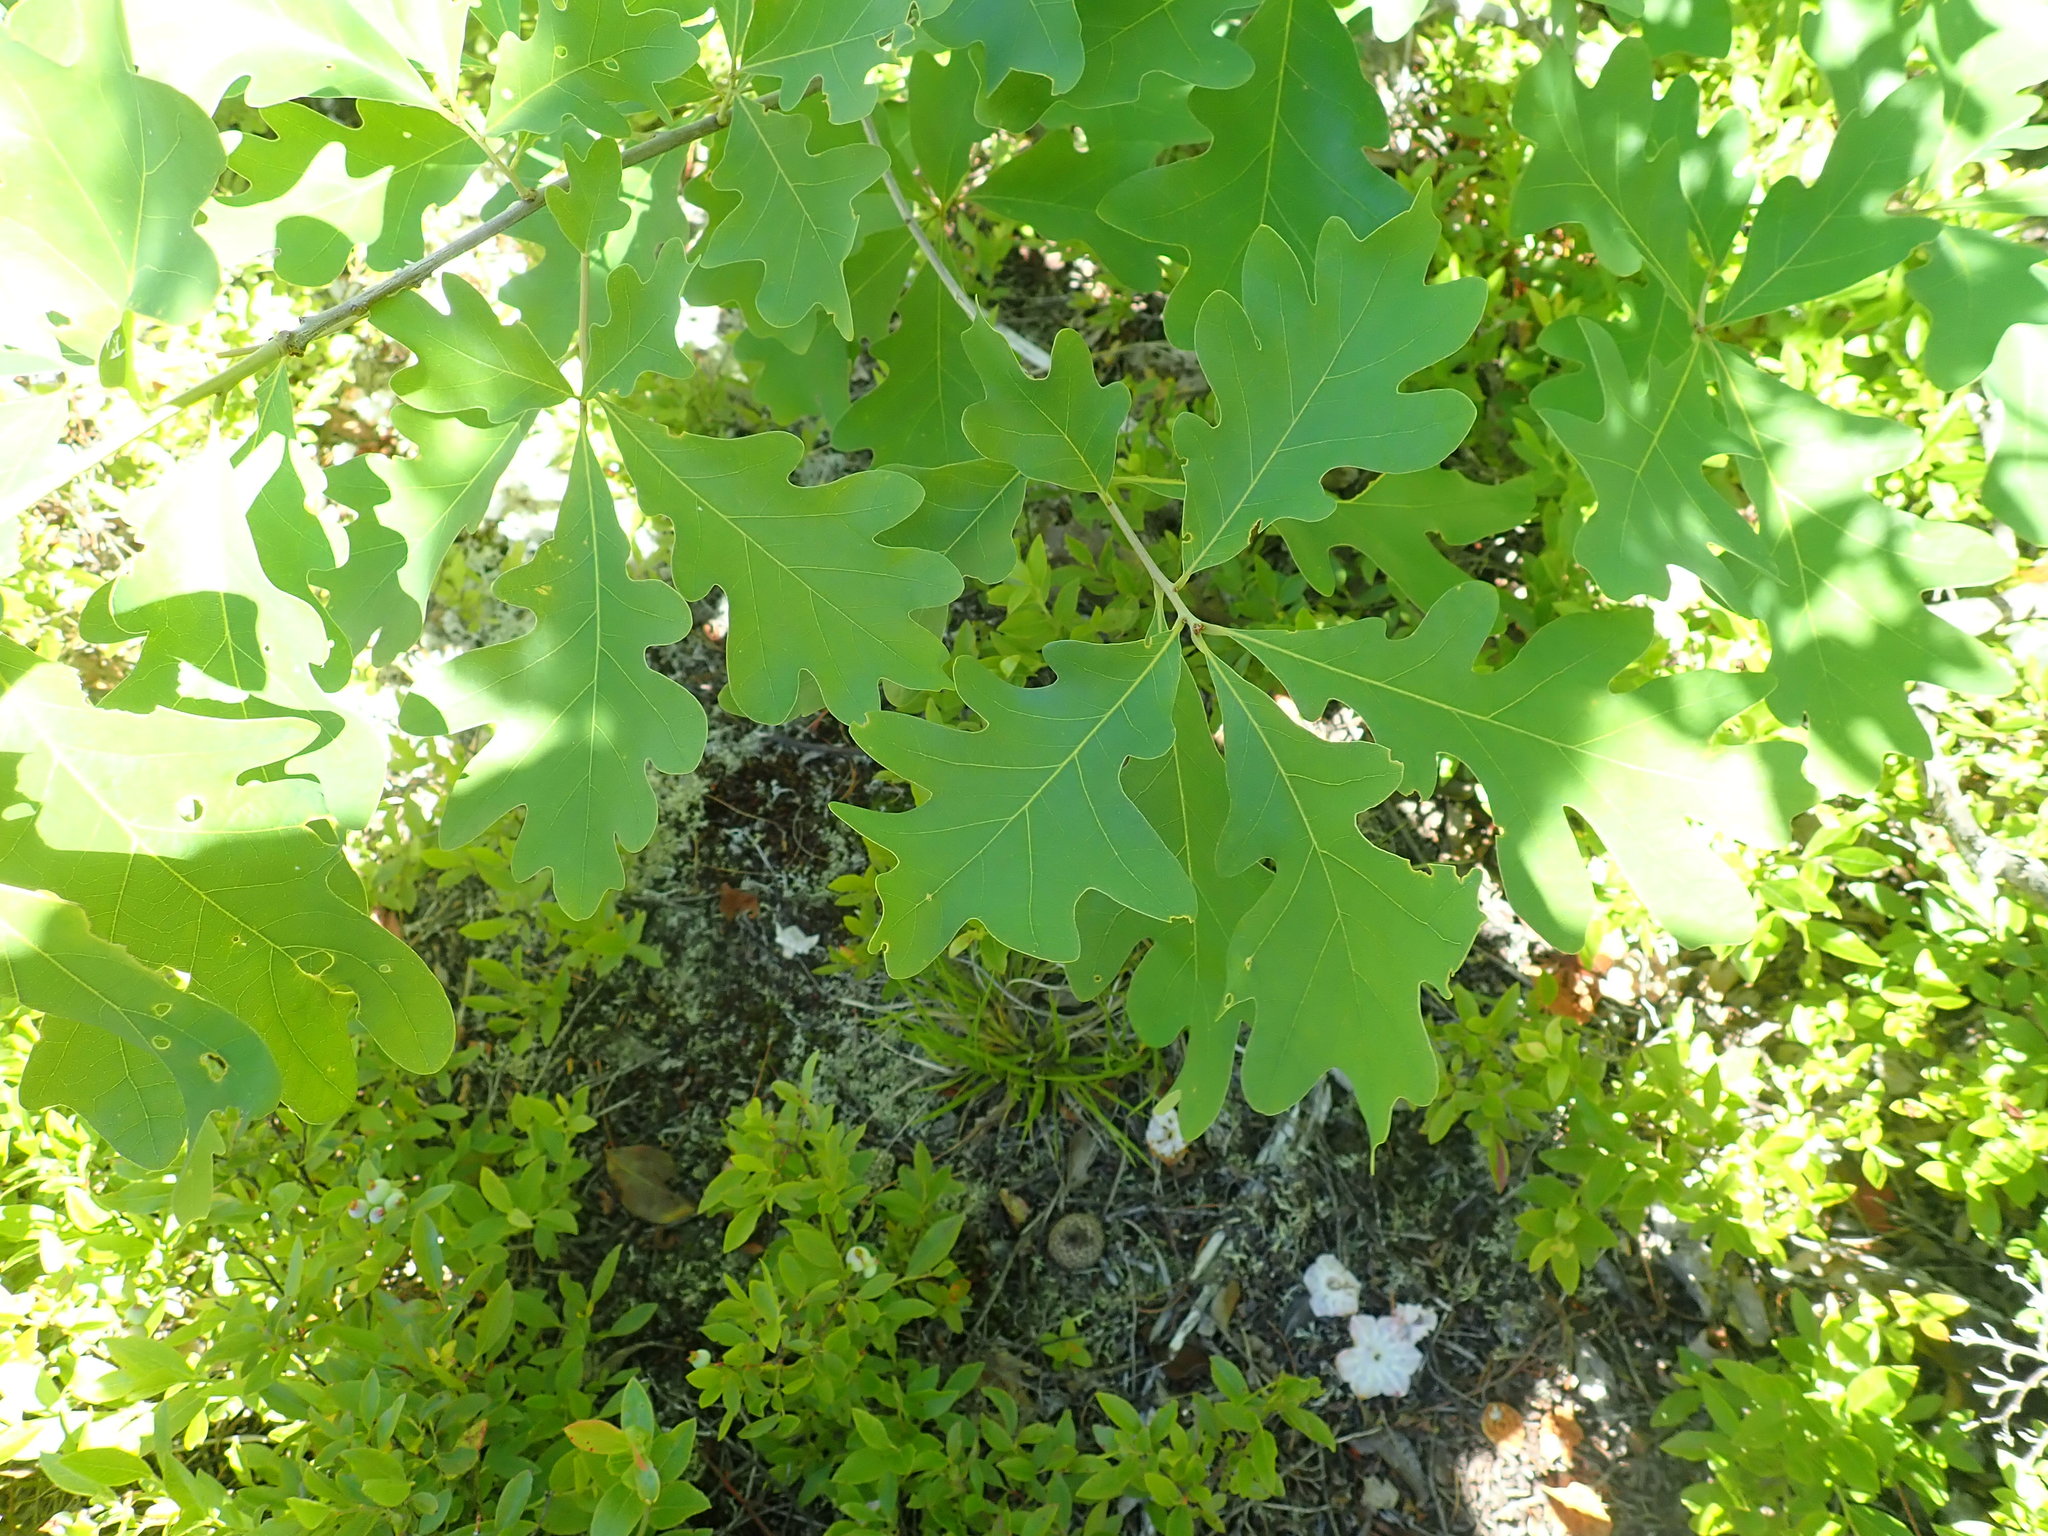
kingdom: Plantae
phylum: Tracheophyta
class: Magnoliopsida
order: Fagales
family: Fagaceae
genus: Quercus
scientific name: Quercus alba
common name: White oak
